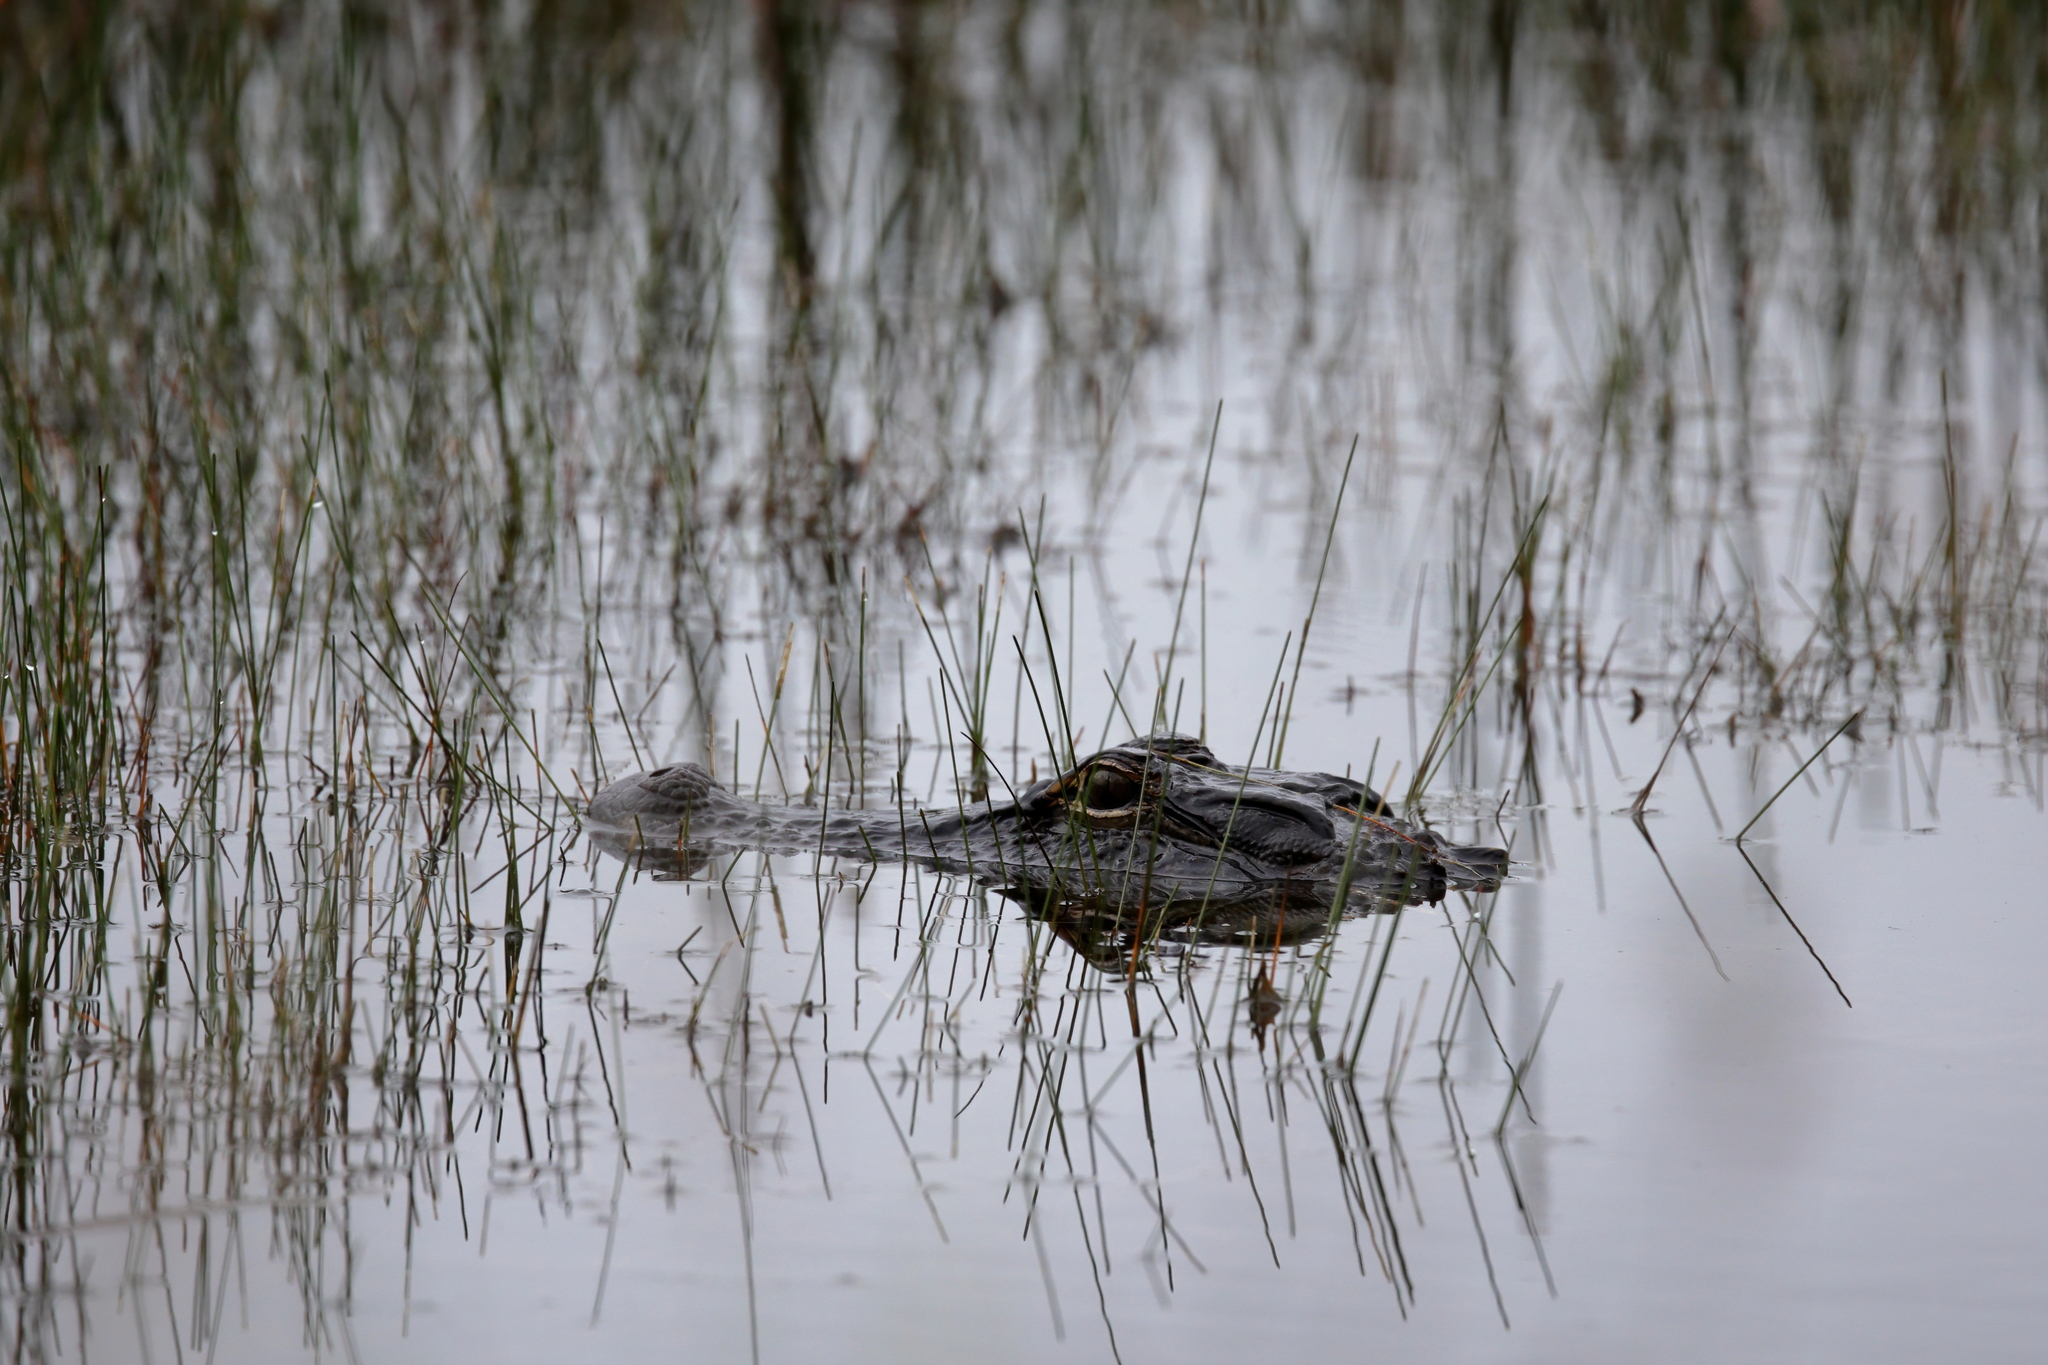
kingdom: Animalia
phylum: Chordata
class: Crocodylia
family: Alligatoridae
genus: Alligator
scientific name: Alligator mississippiensis
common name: American alligator
